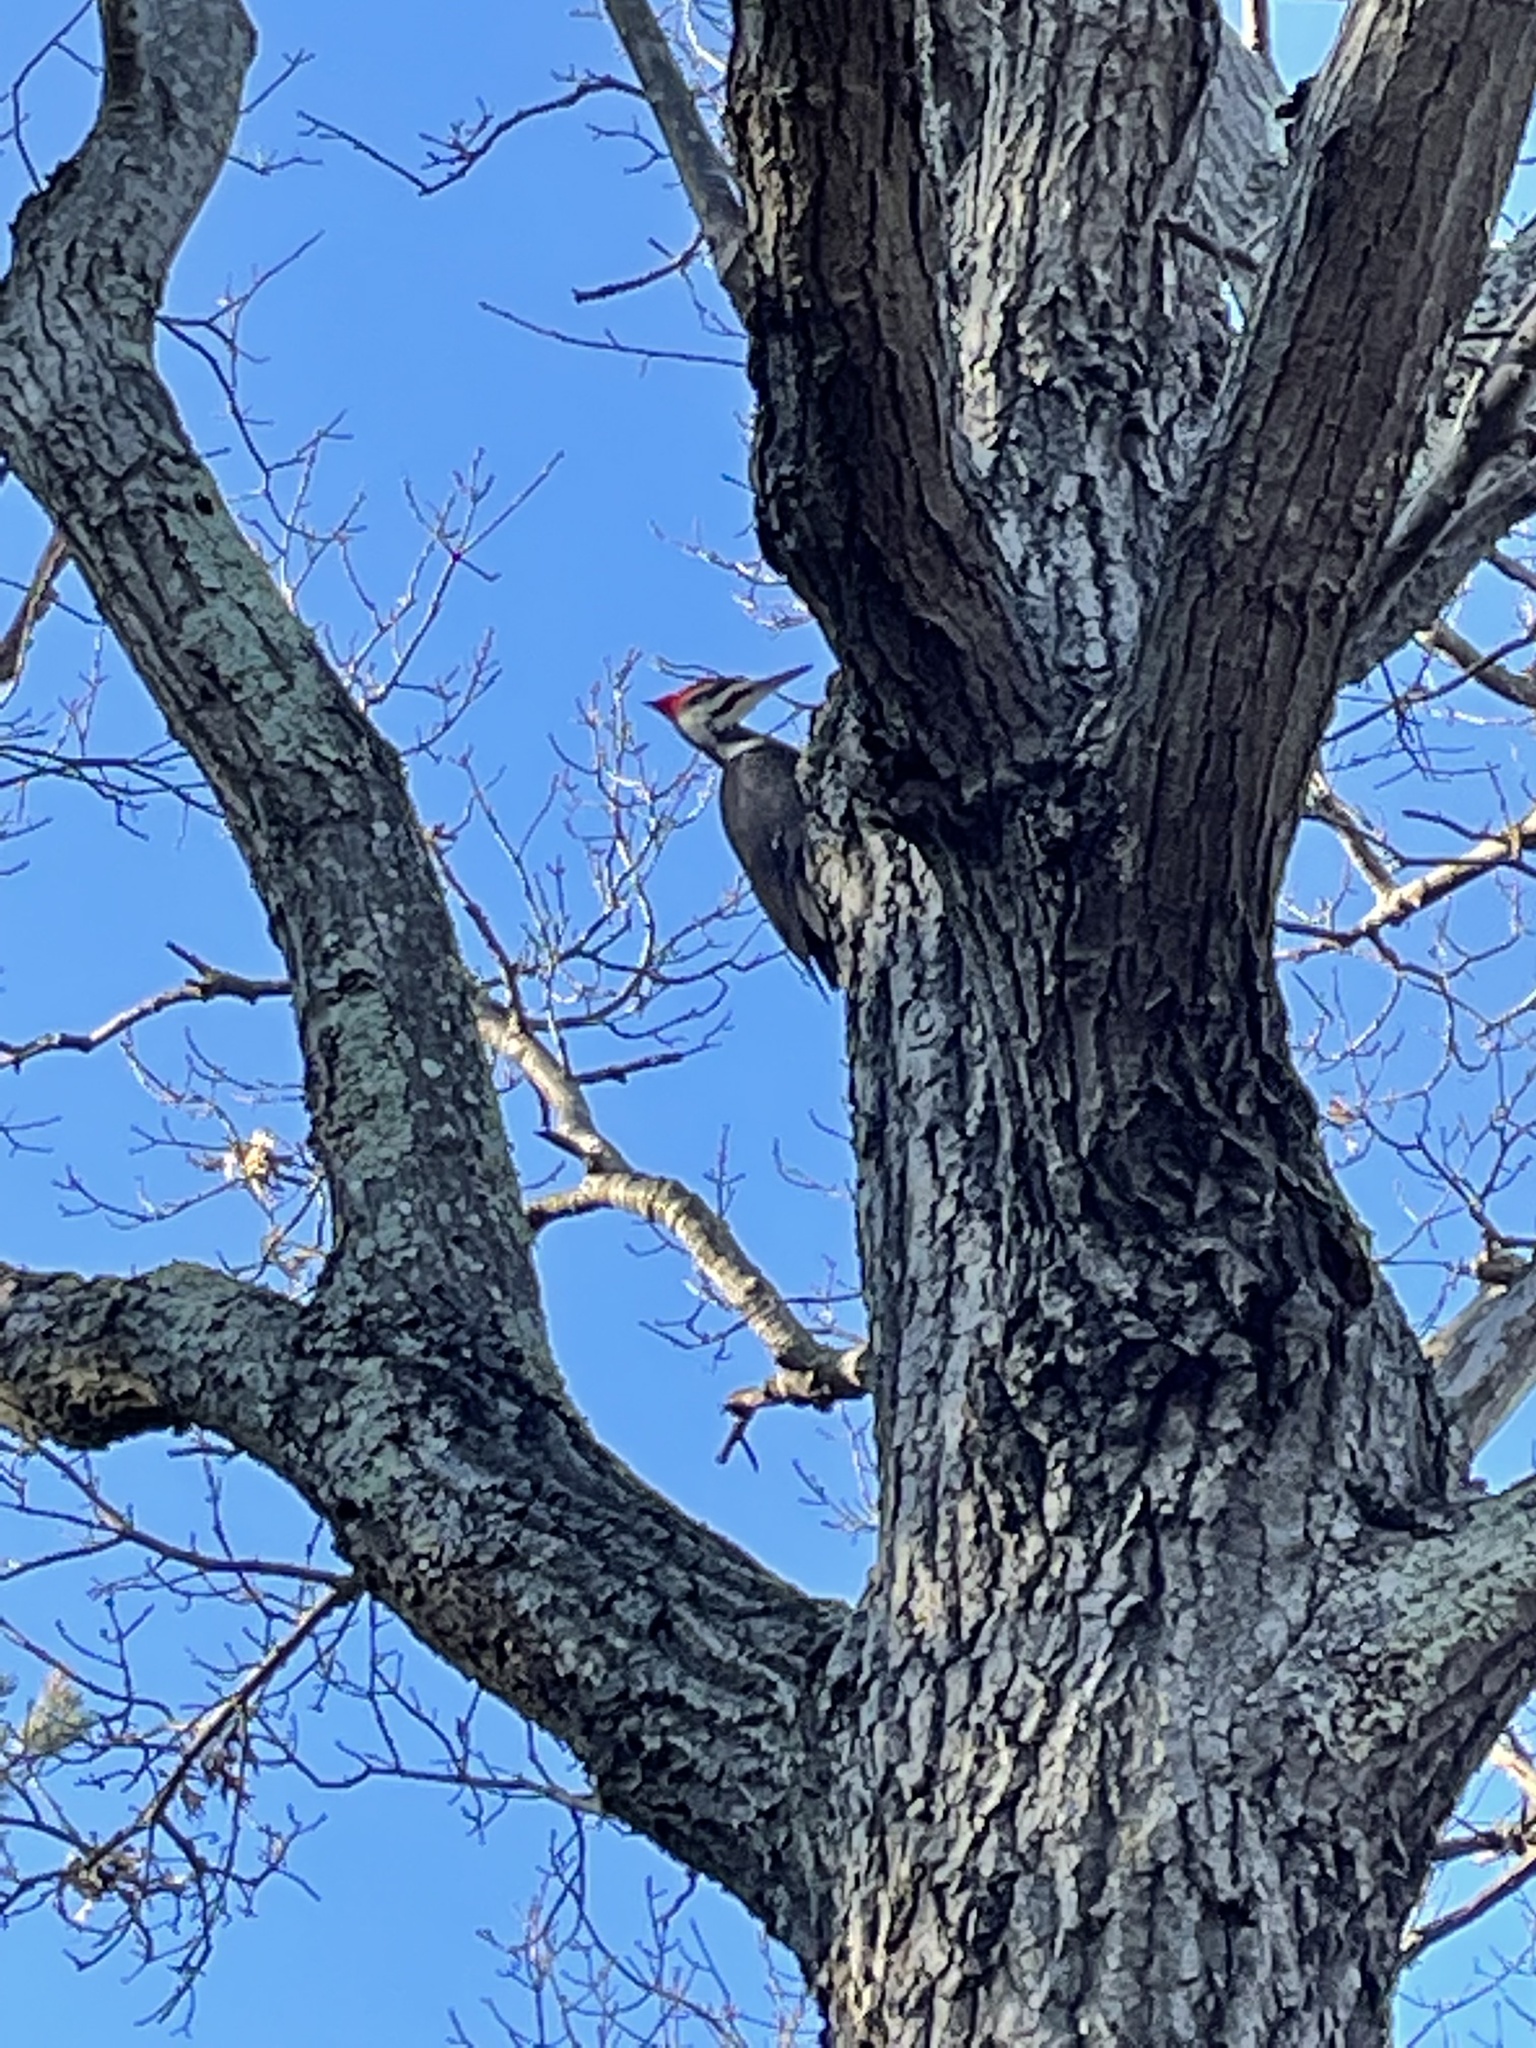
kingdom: Animalia
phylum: Chordata
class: Aves
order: Piciformes
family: Picidae
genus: Dryocopus
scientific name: Dryocopus pileatus
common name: Pileated woodpecker
